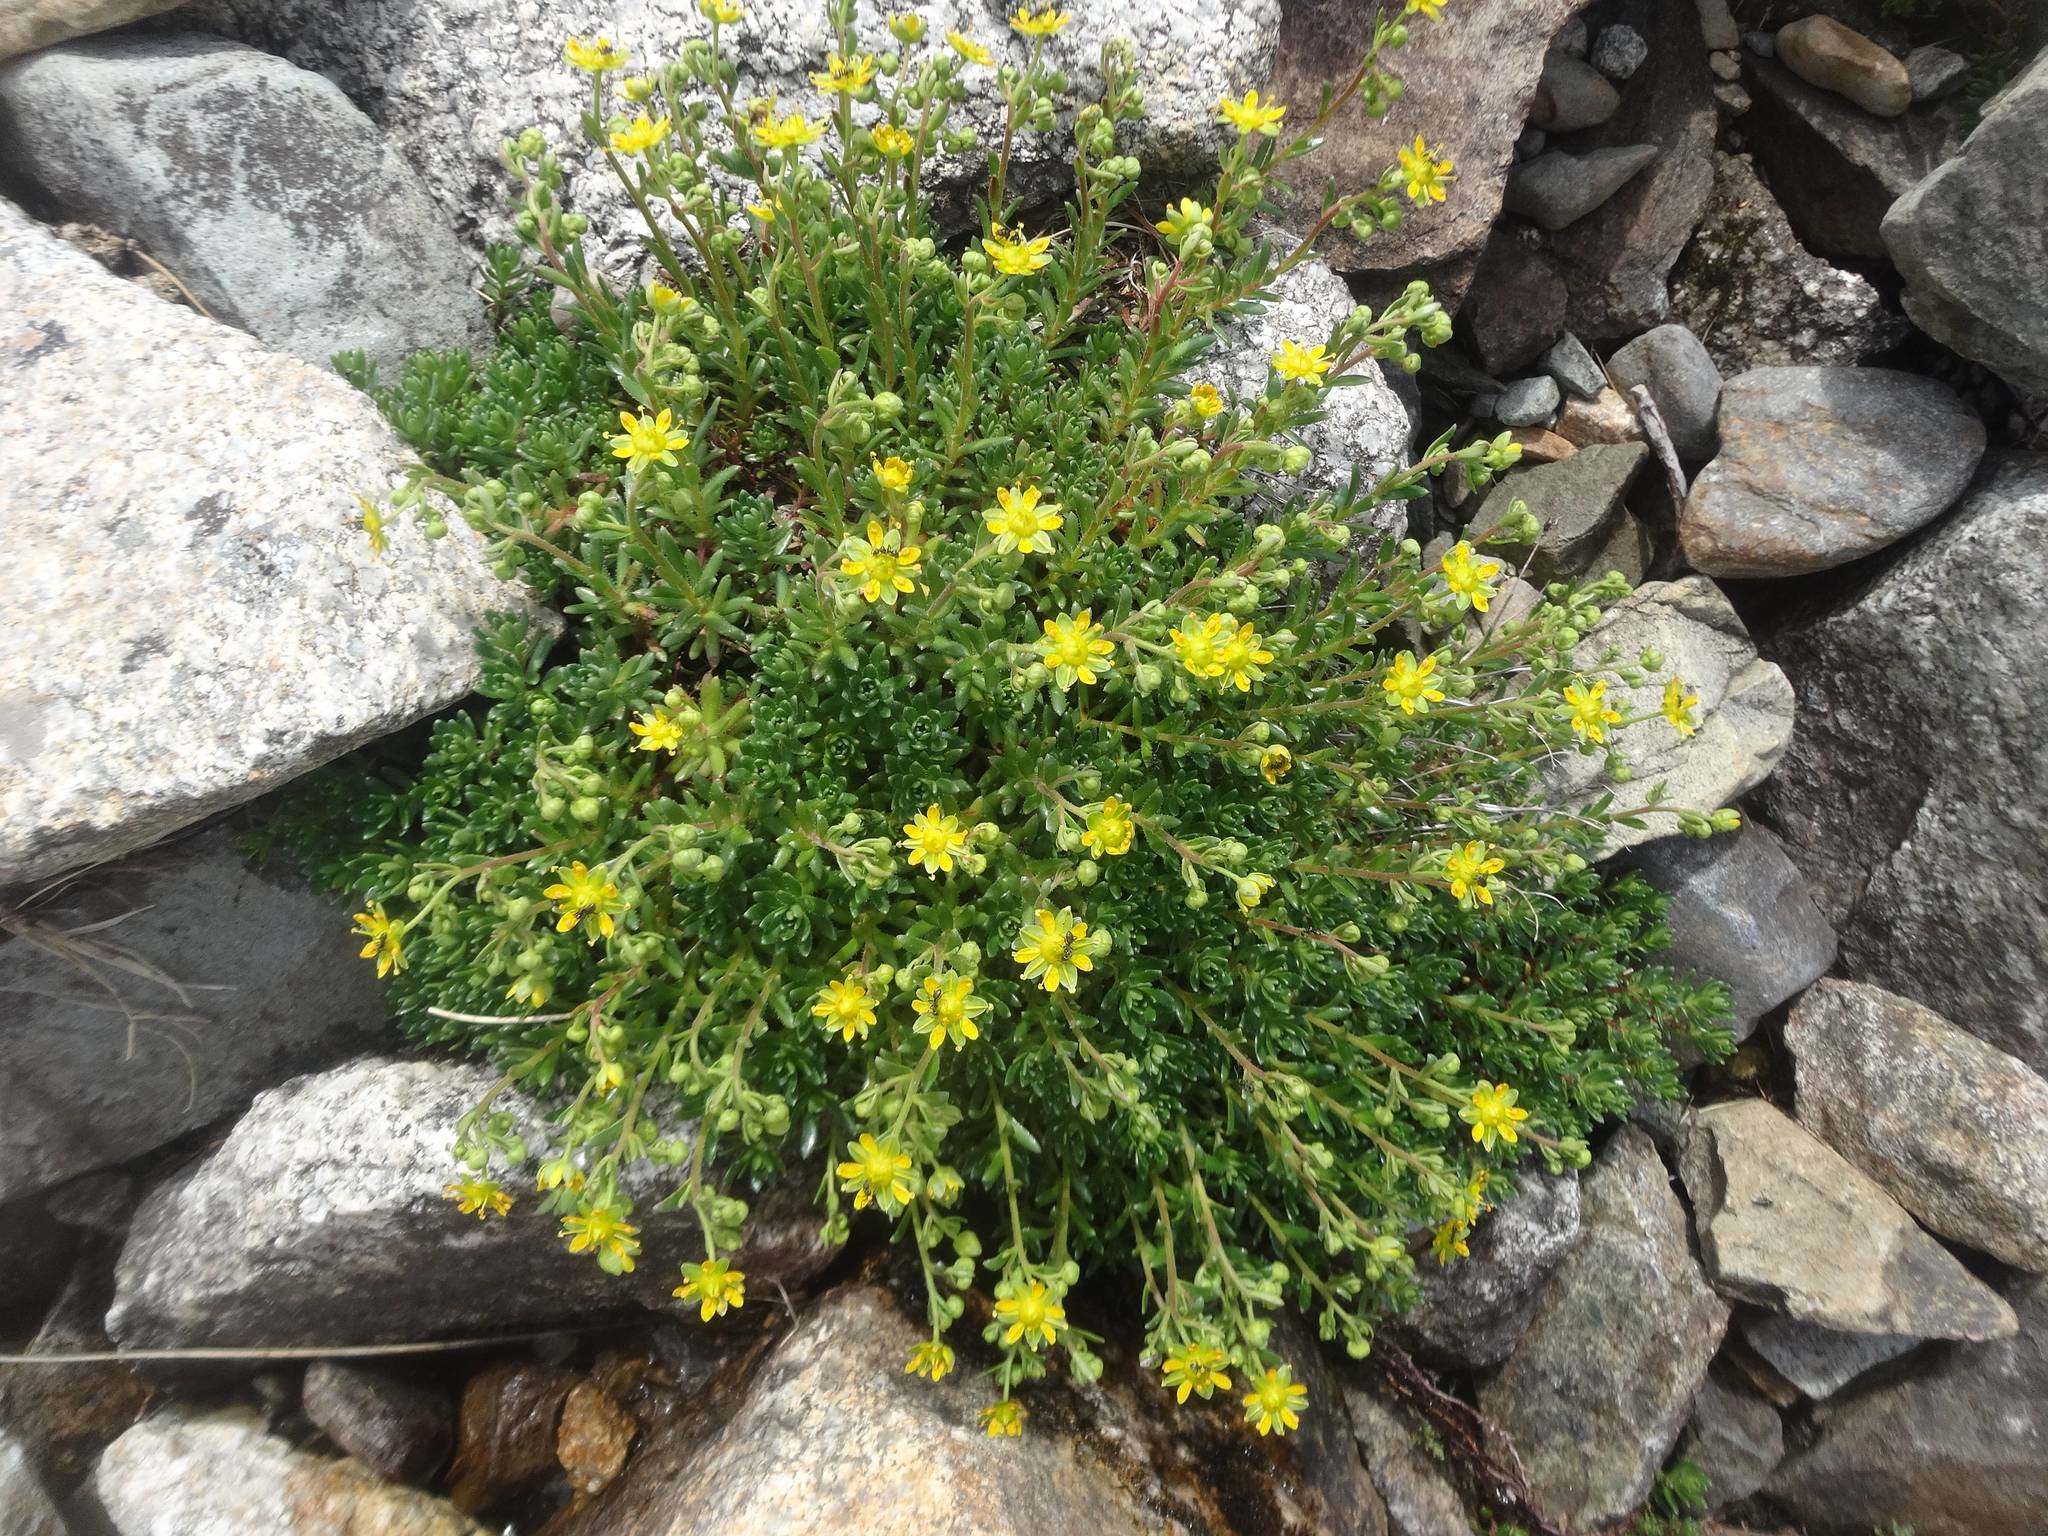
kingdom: Plantae
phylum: Tracheophyta
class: Magnoliopsida
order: Saxifragales
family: Saxifragaceae
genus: Saxifraga
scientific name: Saxifraga aizoides
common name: Yellow mountain saxifrage
